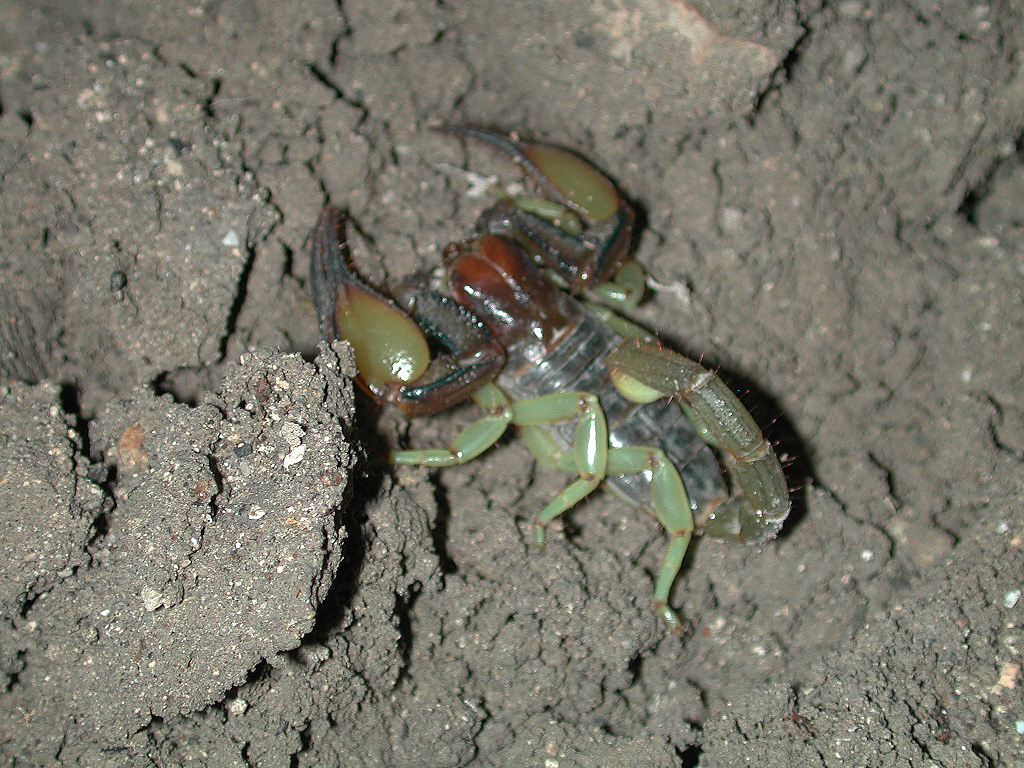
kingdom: Animalia
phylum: Arthropoda
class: Arachnida
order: Scorpiones
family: Scorpionidae
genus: Opistophthalmus
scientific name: Opistophthalmus carinatus
